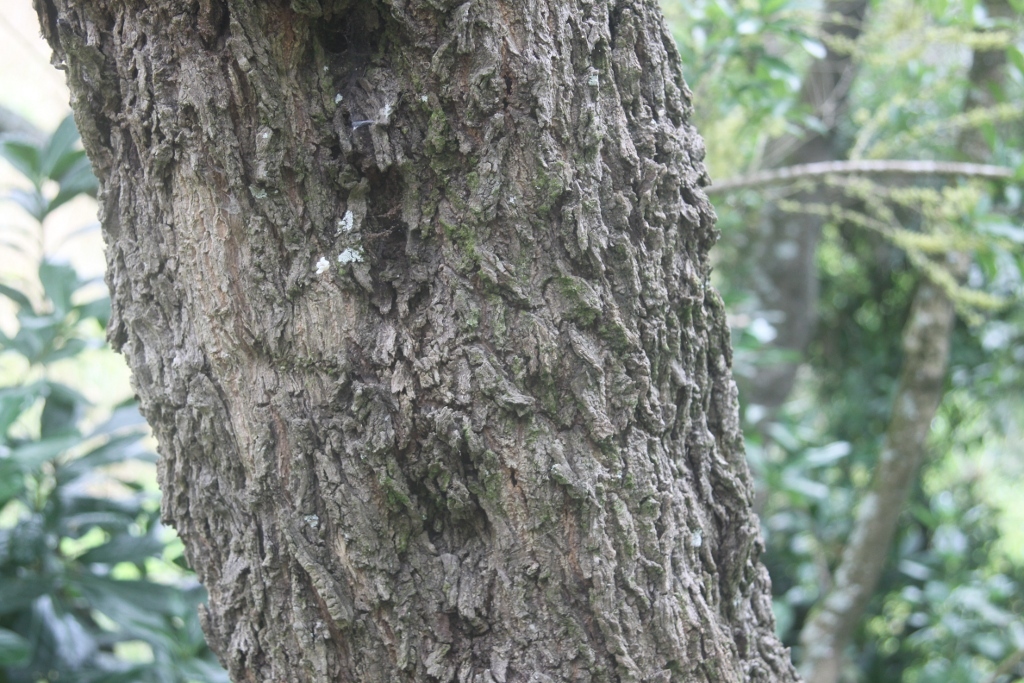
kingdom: Plantae
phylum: Tracheophyta
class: Magnoliopsida
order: Cucurbitales
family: Corynocarpaceae
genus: Corynocarpus
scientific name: Corynocarpus laevigatus
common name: New zealand laurel
